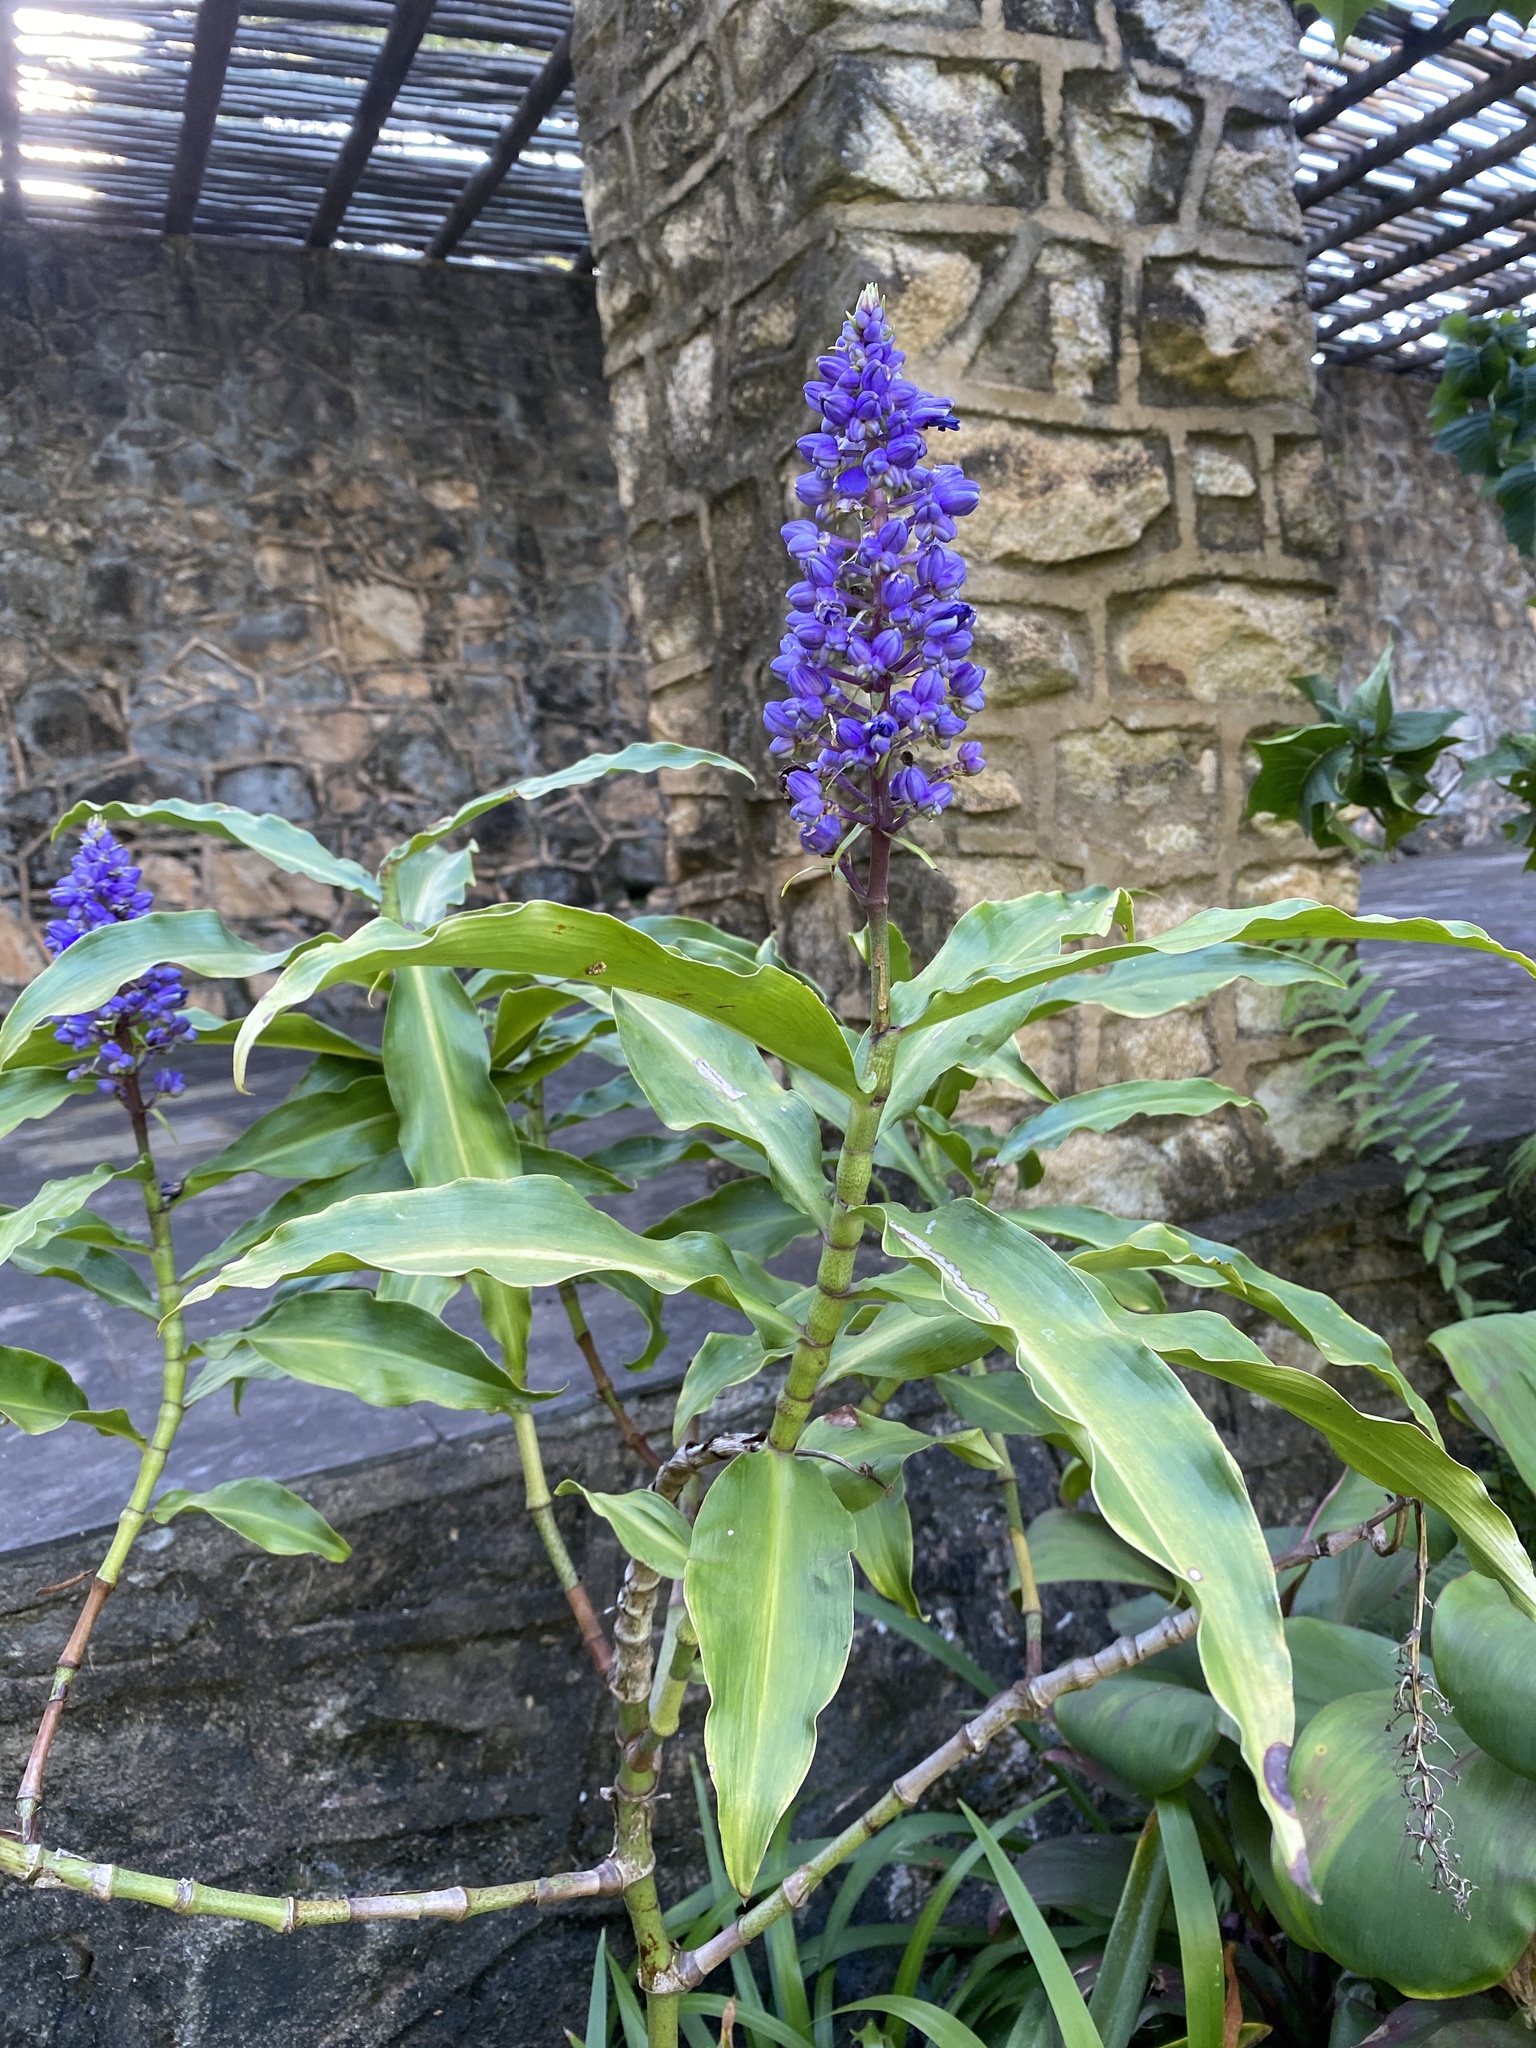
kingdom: Plantae
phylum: Tracheophyta
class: Liliopsida
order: Commelinales
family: Commelinaceae
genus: Dichorisandra
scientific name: Dichorisandra thyrsiflora
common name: Blue-ginger
